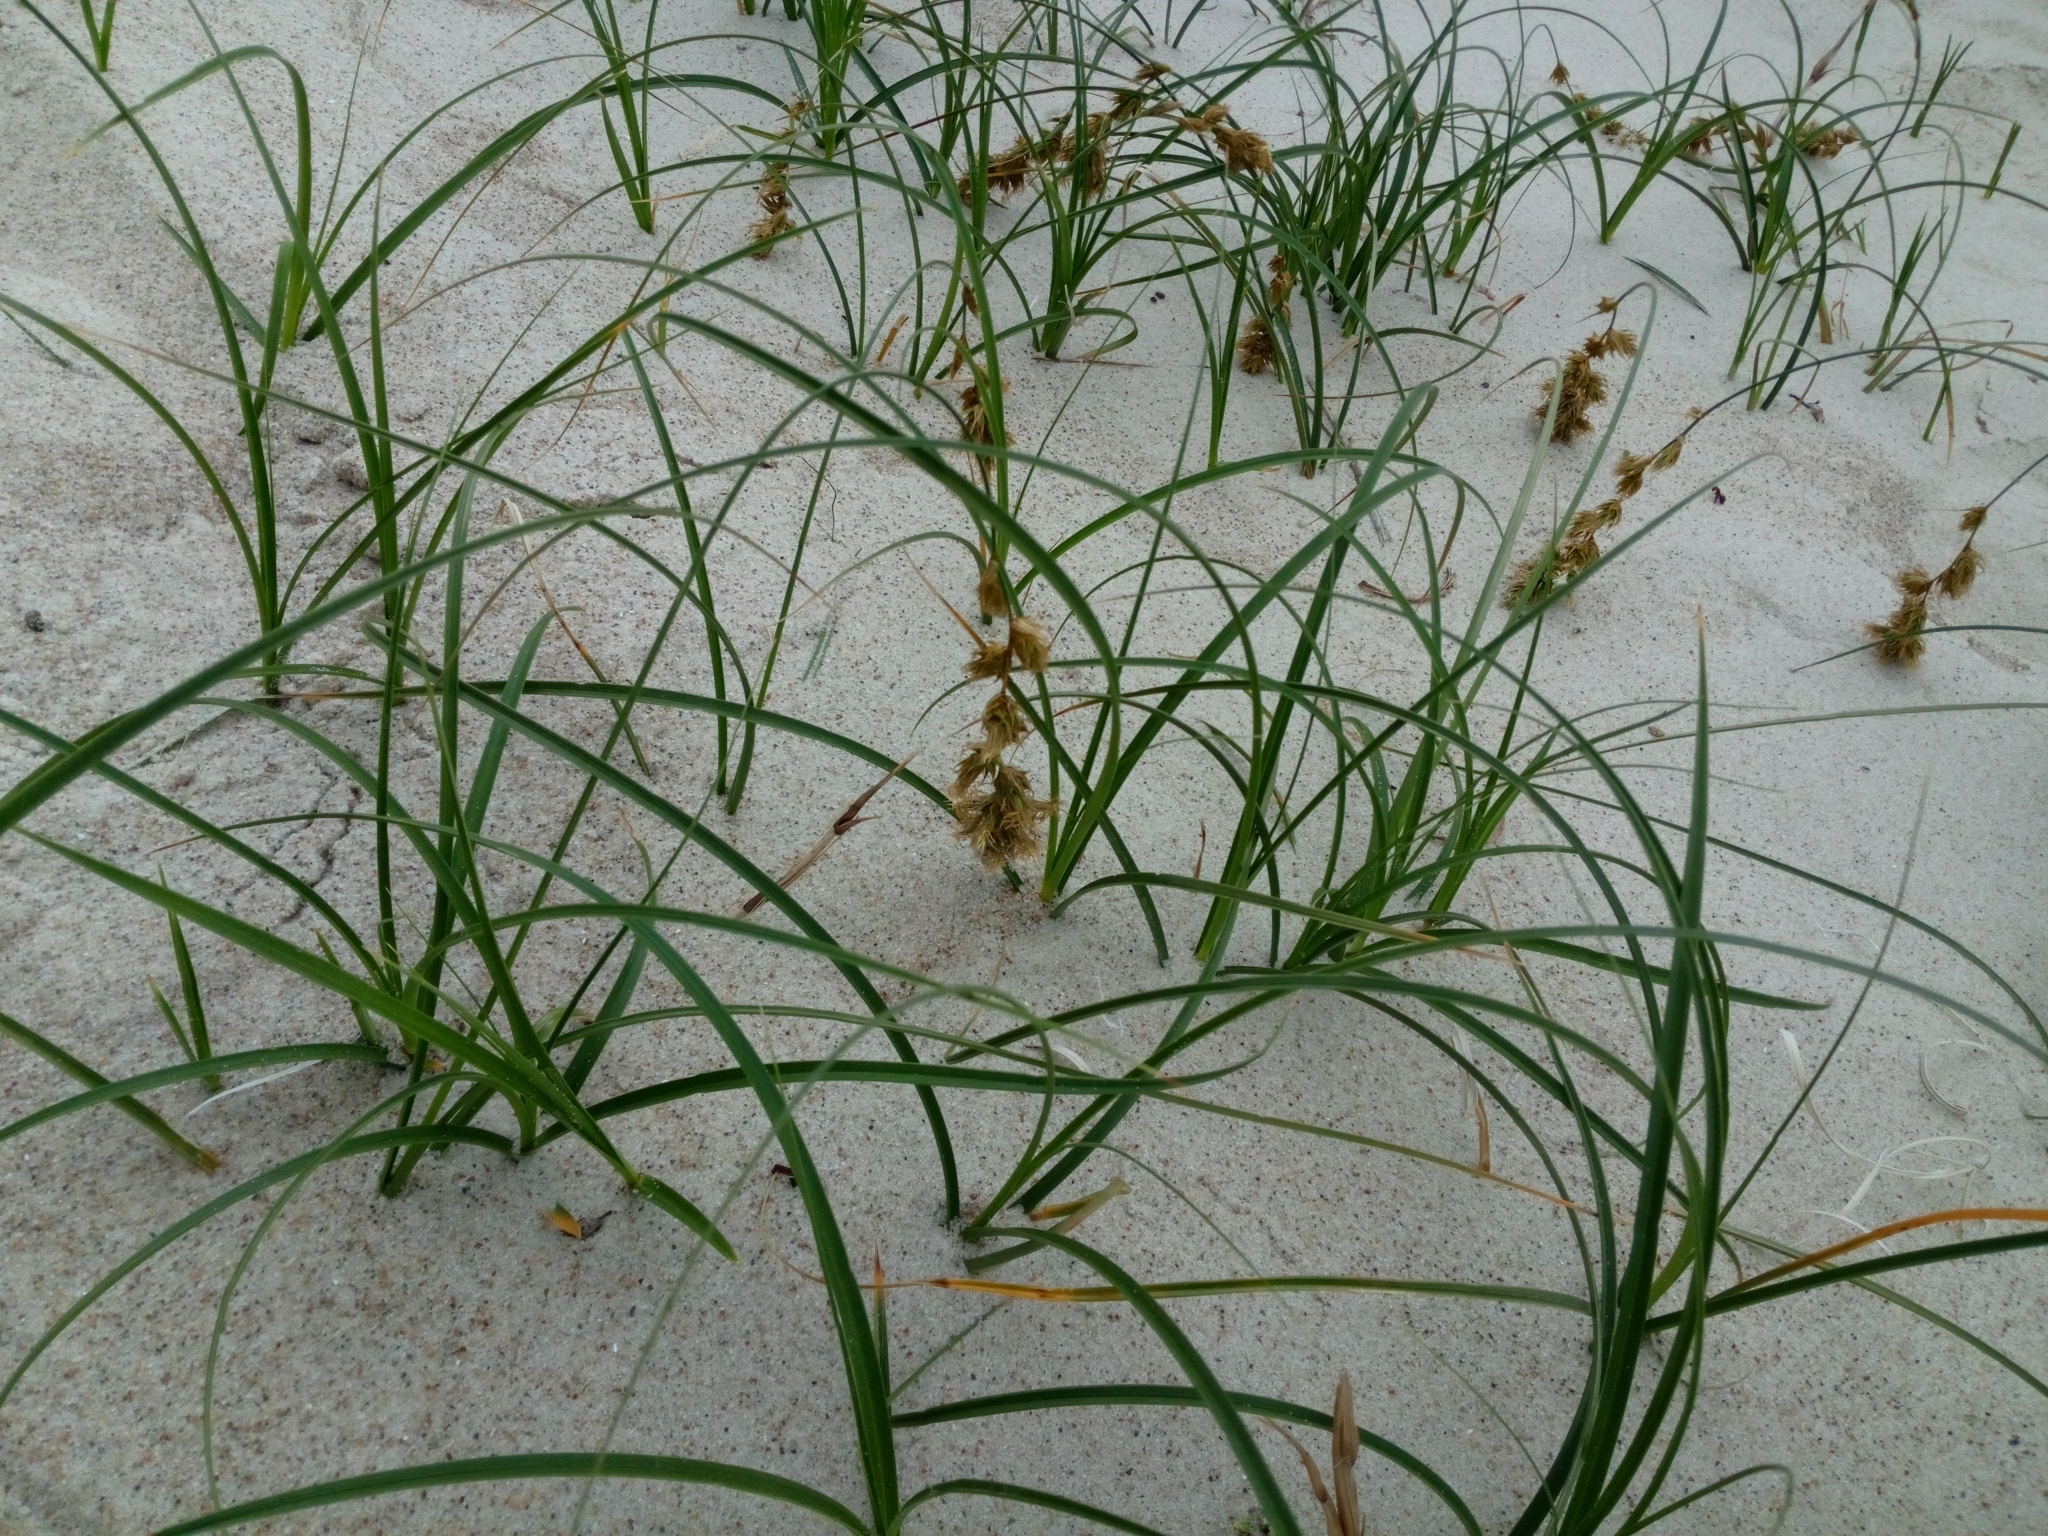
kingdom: Plantae
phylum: Tracheophyta
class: Liliopsida
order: Poales
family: Cyperaceae
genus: Carex
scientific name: Carex arenaria
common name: Sand sedge
